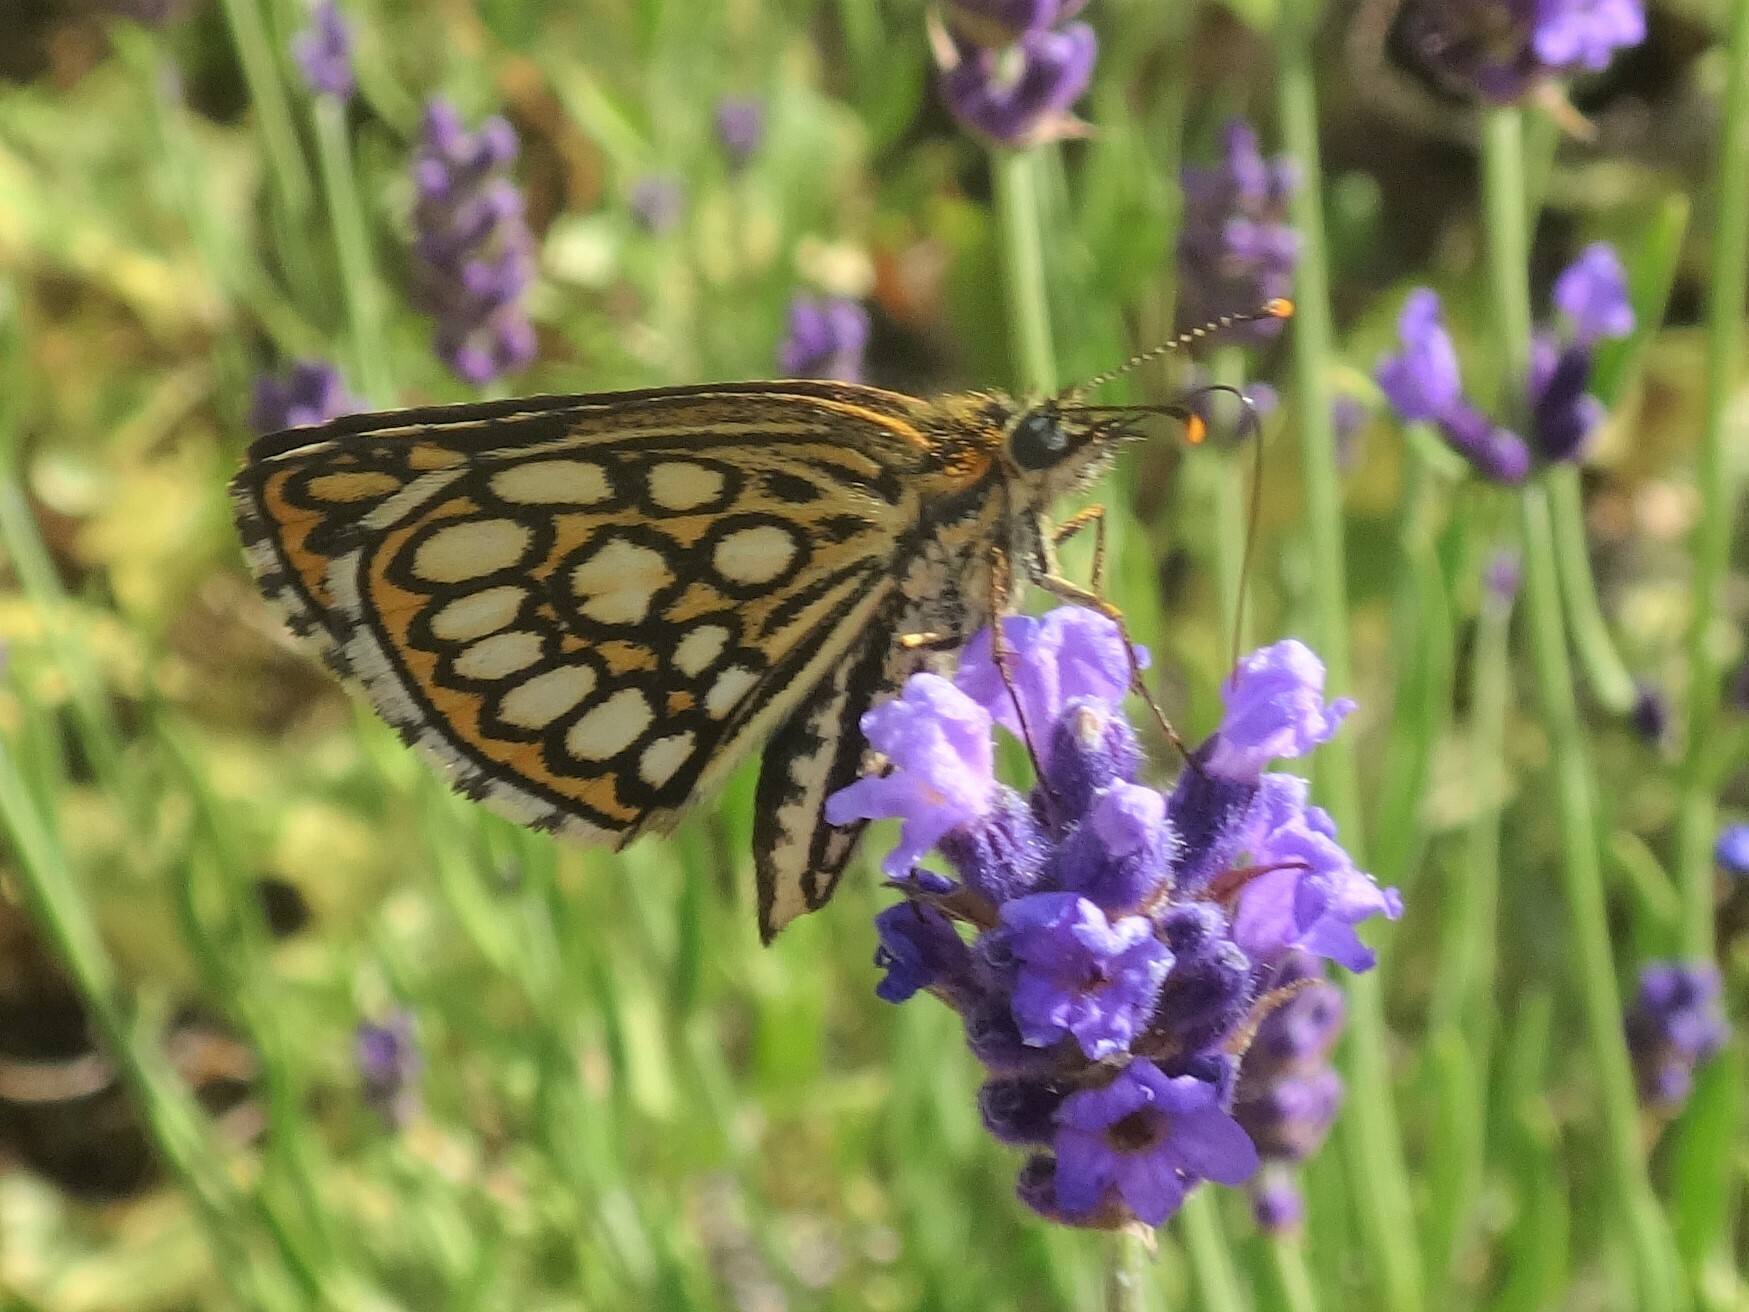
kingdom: Animalia
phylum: Arthropoda
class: Insecta
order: Lepidoptera
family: Hesperiidae
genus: Heteropterus
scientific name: Heteropterus morpheus
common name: Large chequered skipper
